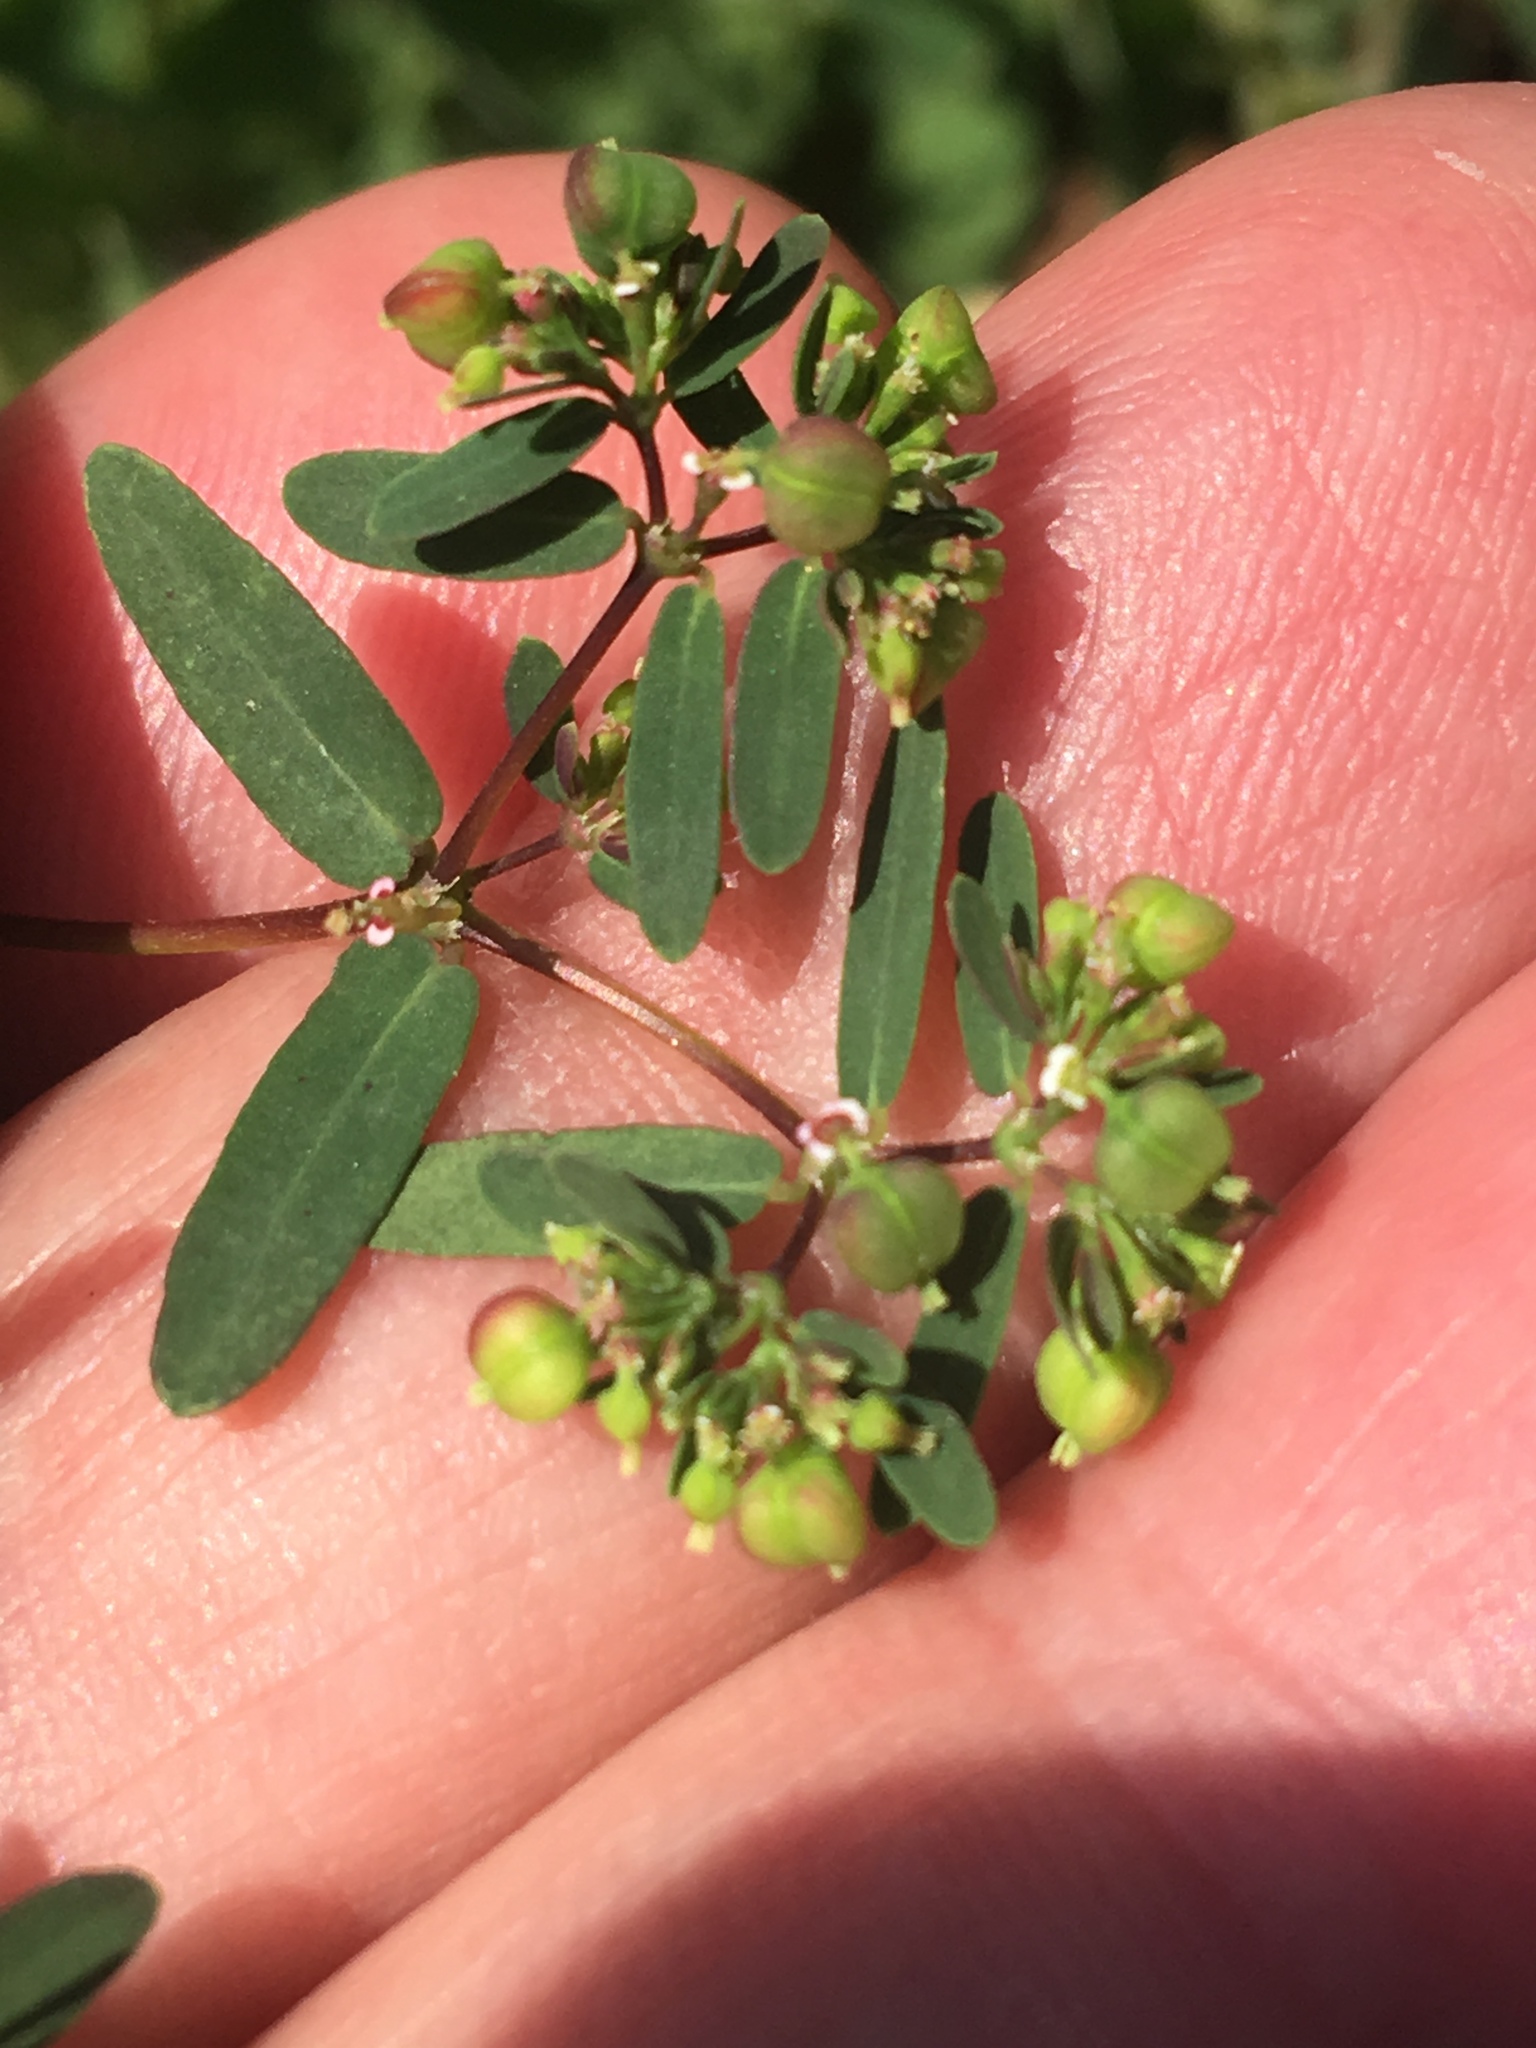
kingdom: Plantae
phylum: Tracheophyta
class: Magnoliopsida
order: Malpighiales
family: Euphorbiaceae
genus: Euphorbia
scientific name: Euphorbia hyssopifolia
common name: Hyssopleaf sandmat
